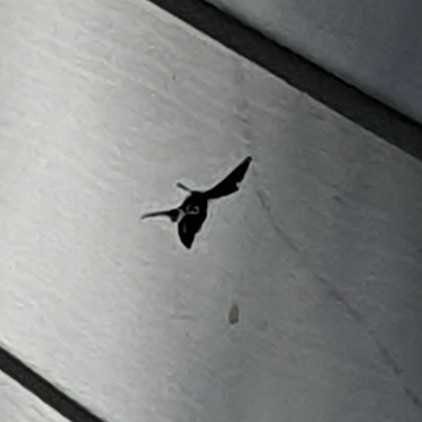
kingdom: Animalia
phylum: Arthropoda
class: Insecta
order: Hymenoptera
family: Eumenidae
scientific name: Eumenidae
